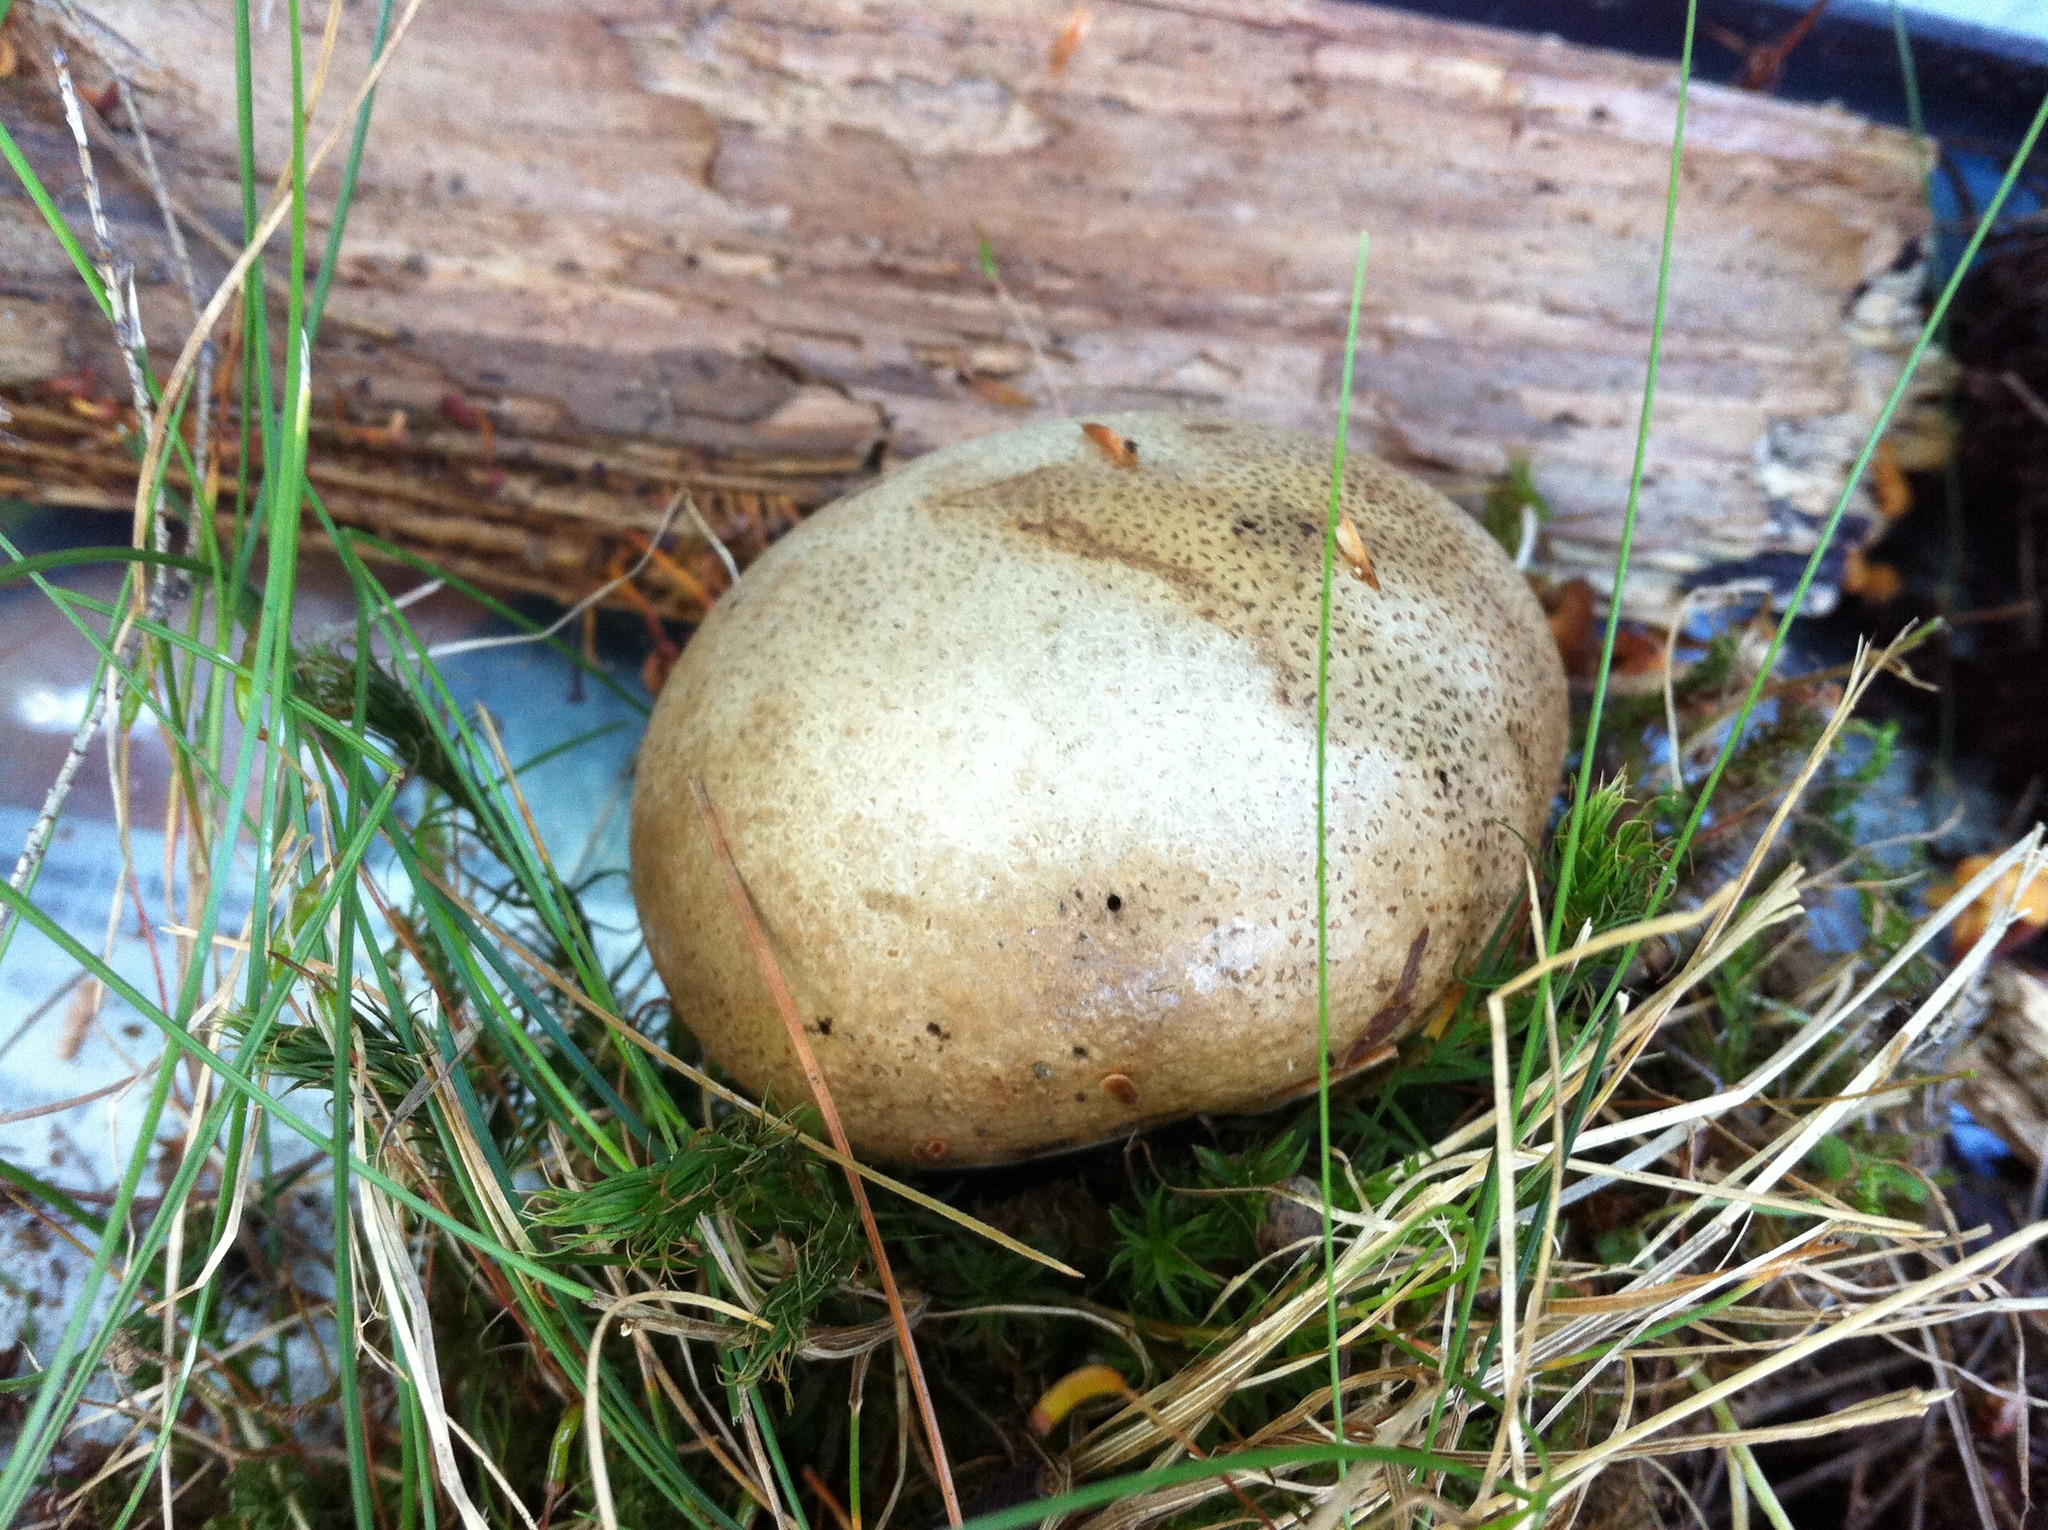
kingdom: Fungi
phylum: Basidiomycota
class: Agaricomycetes
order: Agaricales
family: Lycoperdaceae
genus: Apioperdon
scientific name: Apioperdon pyriforme
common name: Pear-shaped puffball
